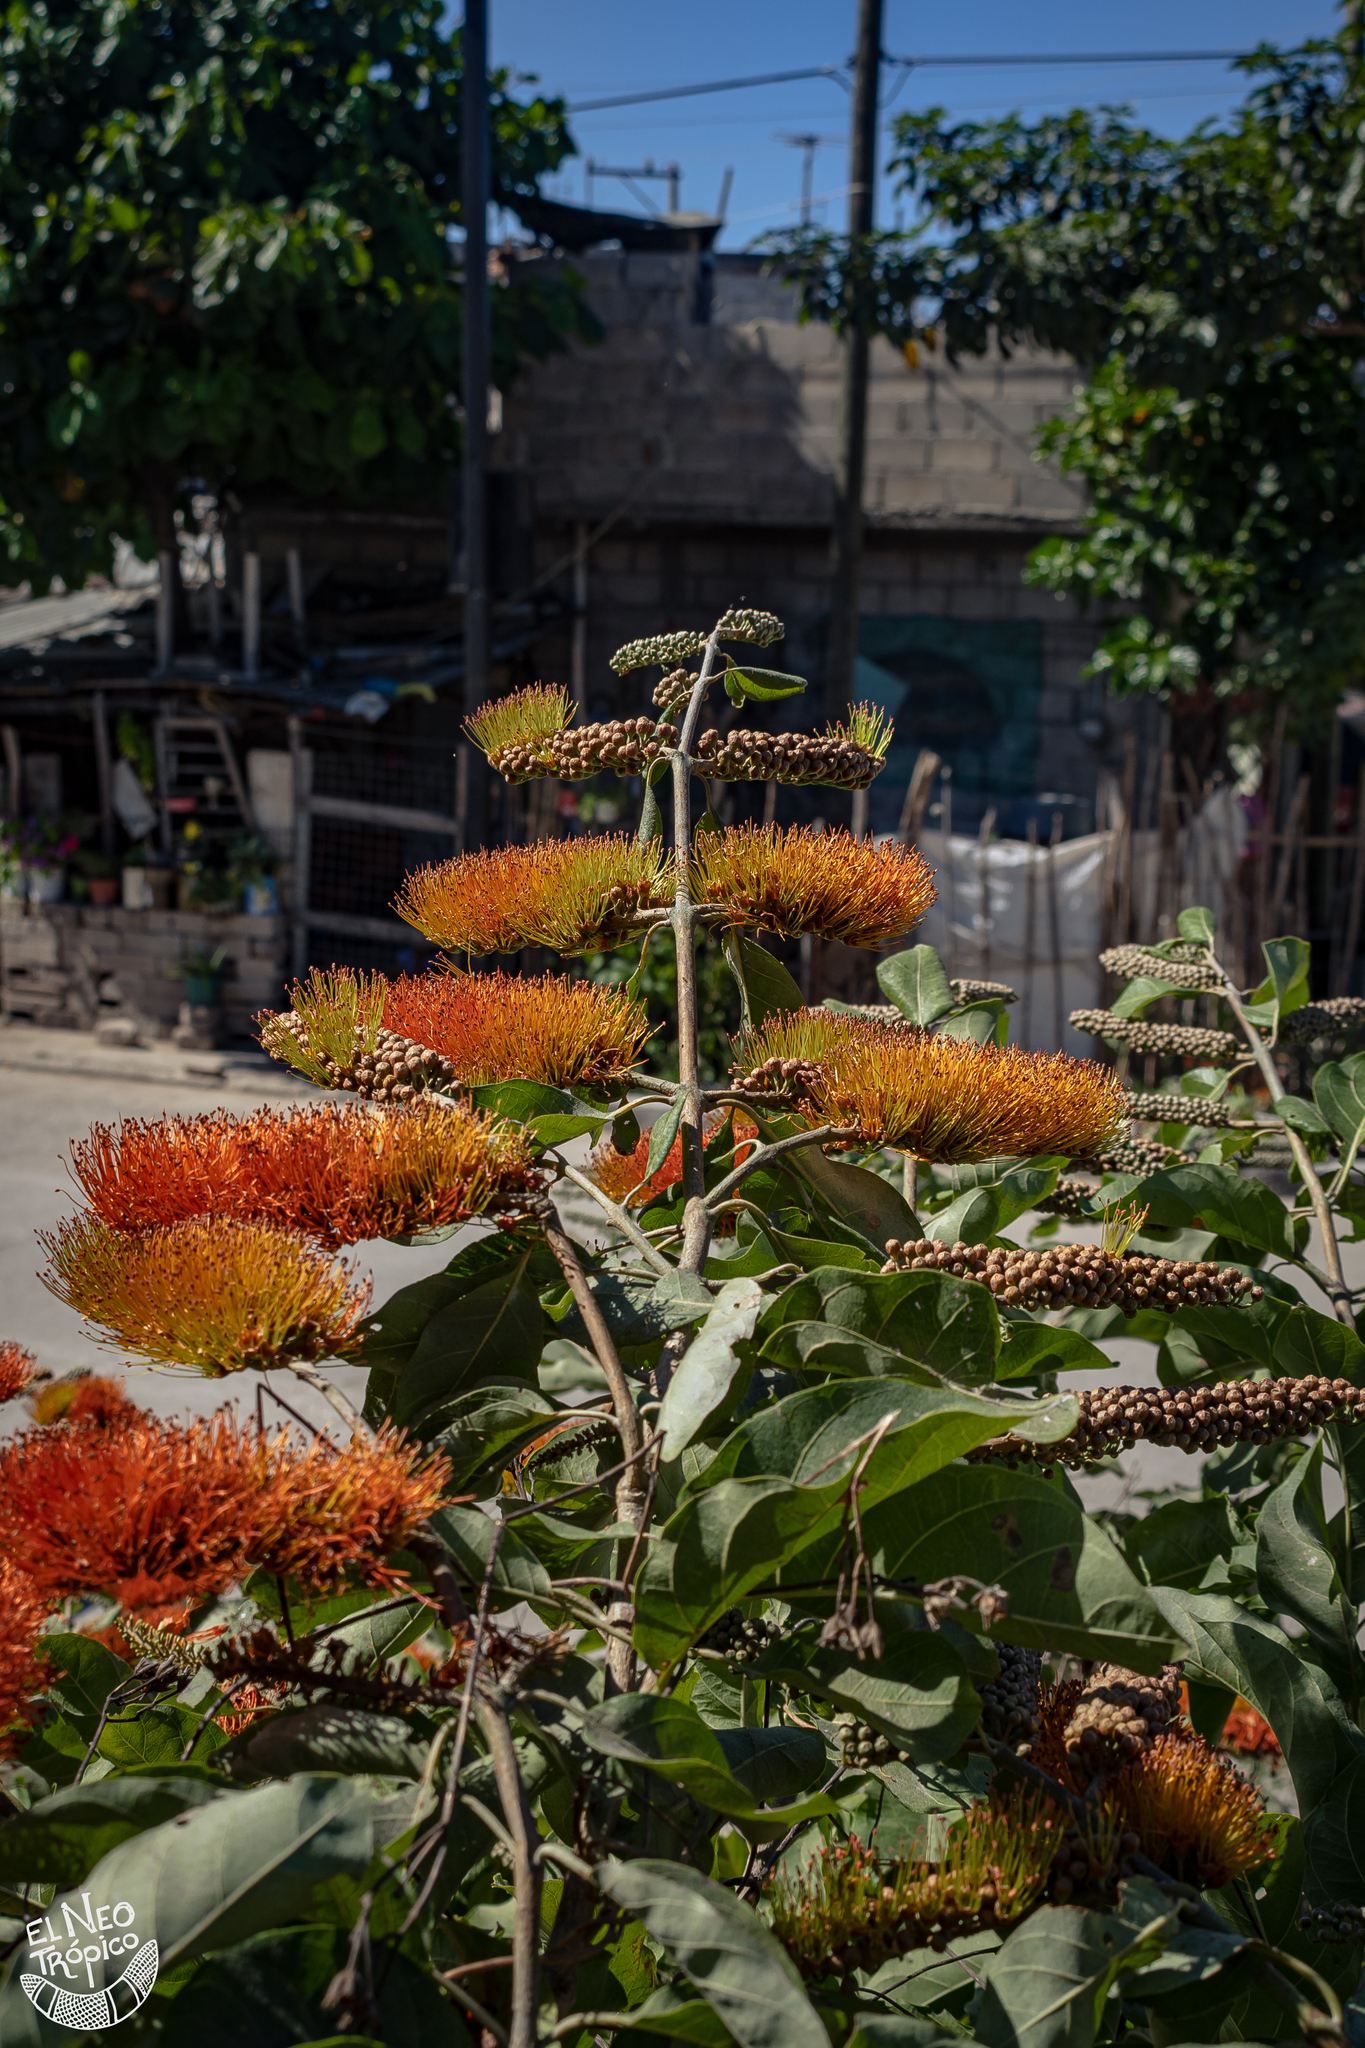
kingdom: Plantae
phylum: Tracheophyta
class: Magnoliopsida
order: Myrtales
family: Combretaceae
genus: Combretum
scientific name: Combretum farinosum
